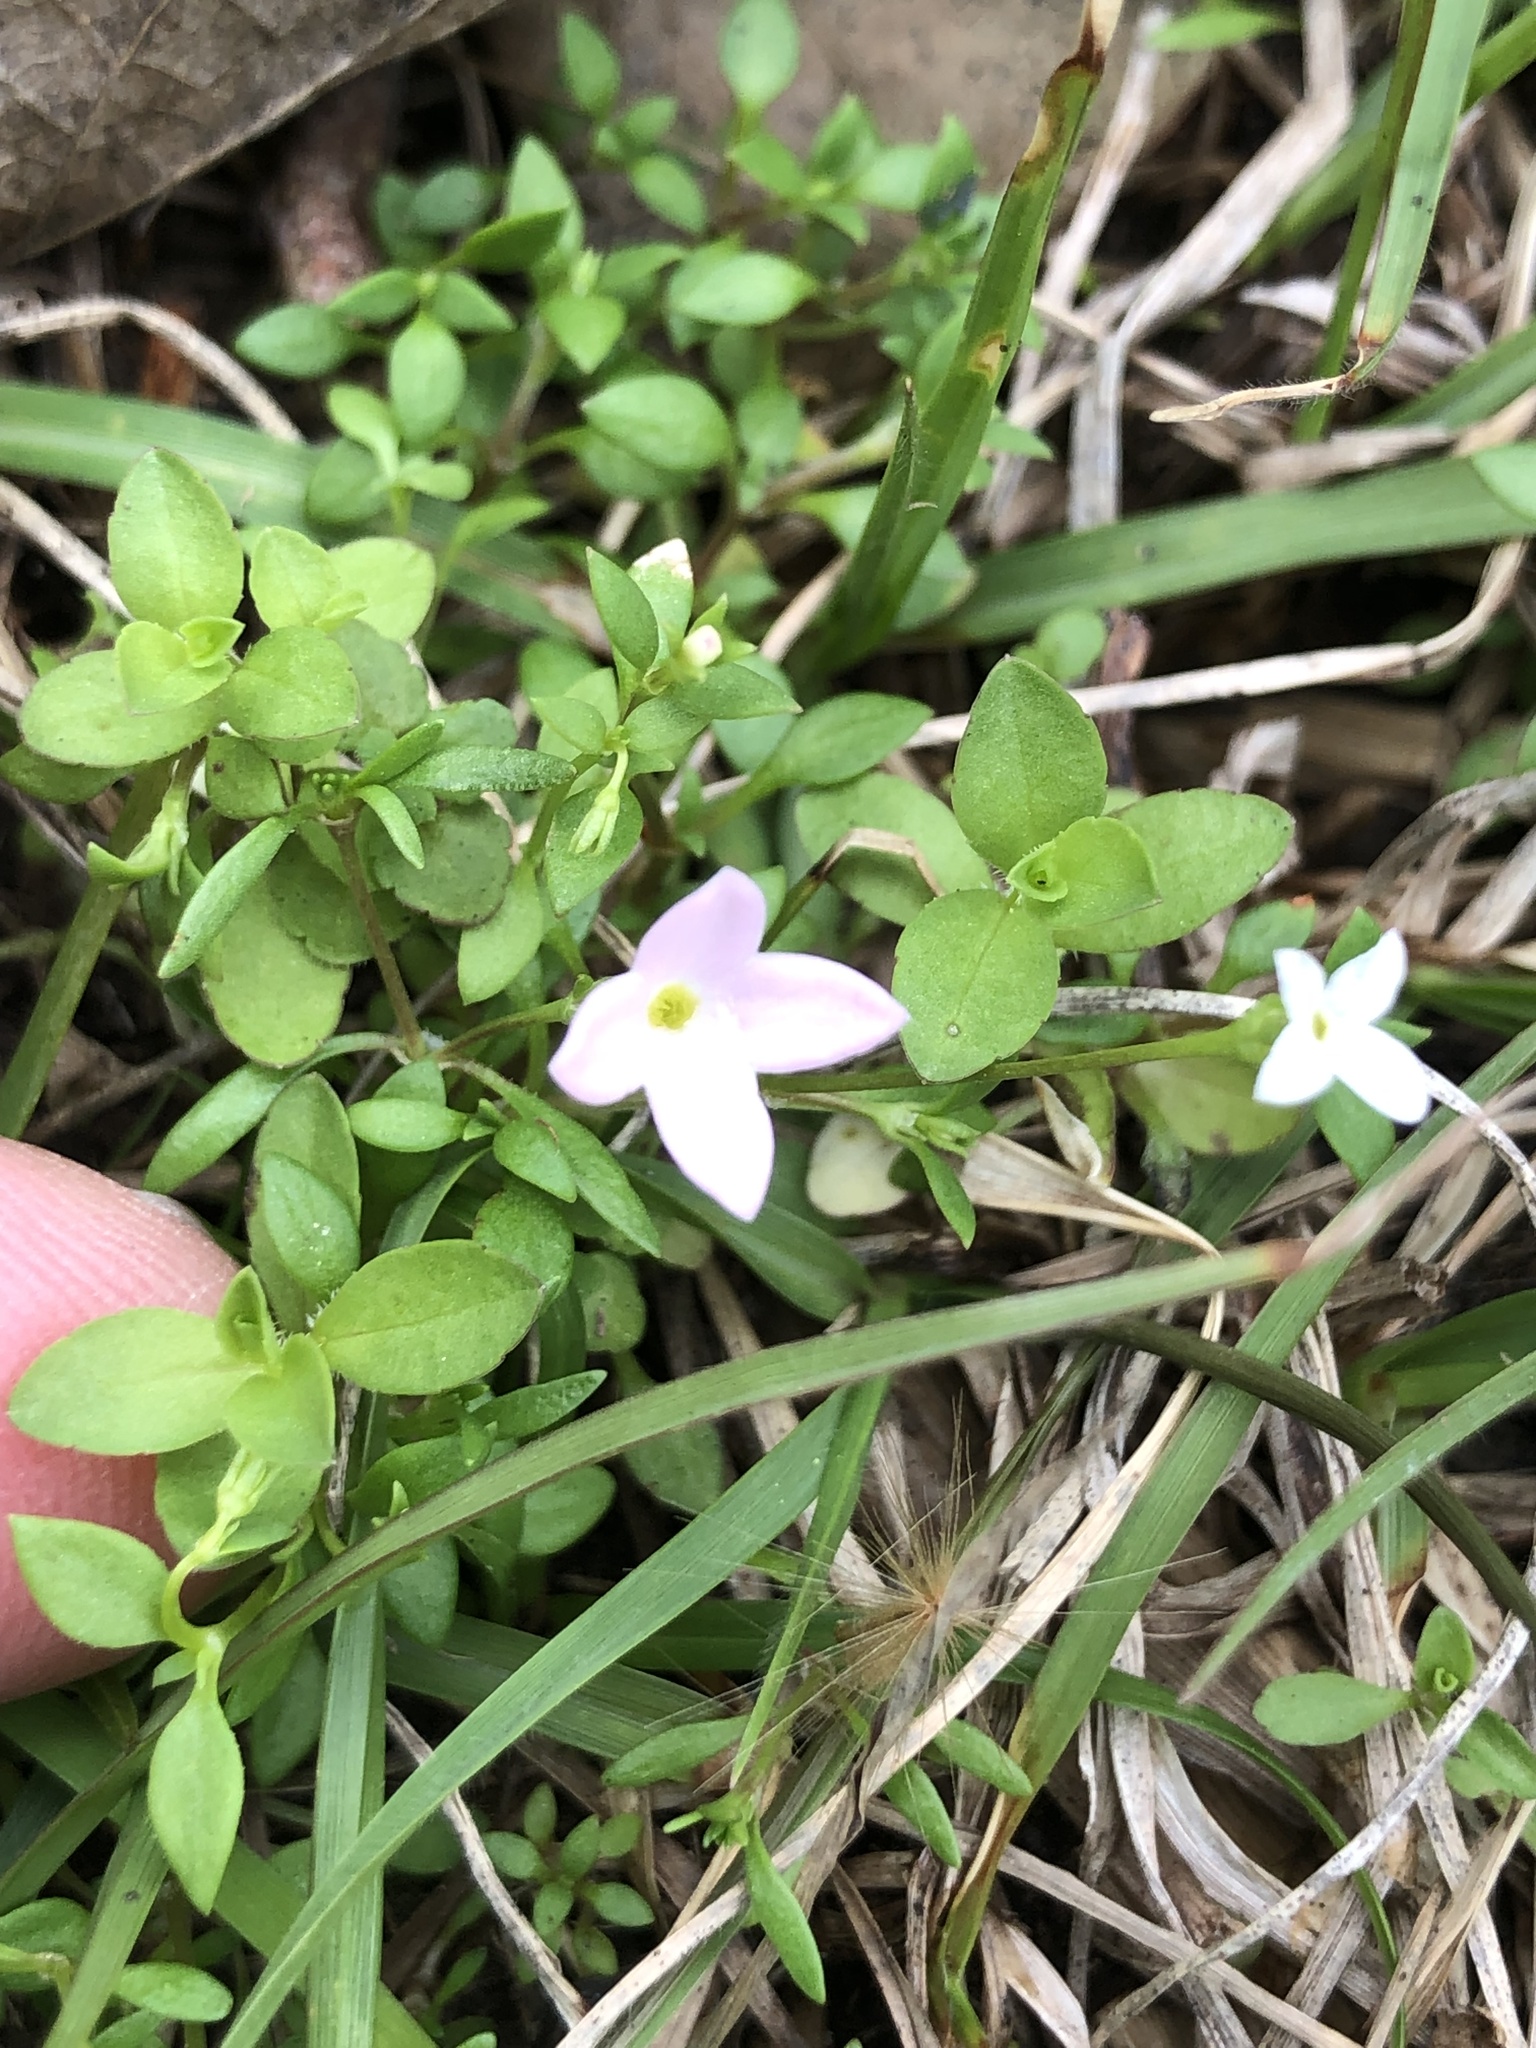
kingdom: Plantae
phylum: Tracheophyta
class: Magnoliopsida
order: Gentianales
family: Rubiaceae
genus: Houstonia
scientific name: Houstonia rosea
